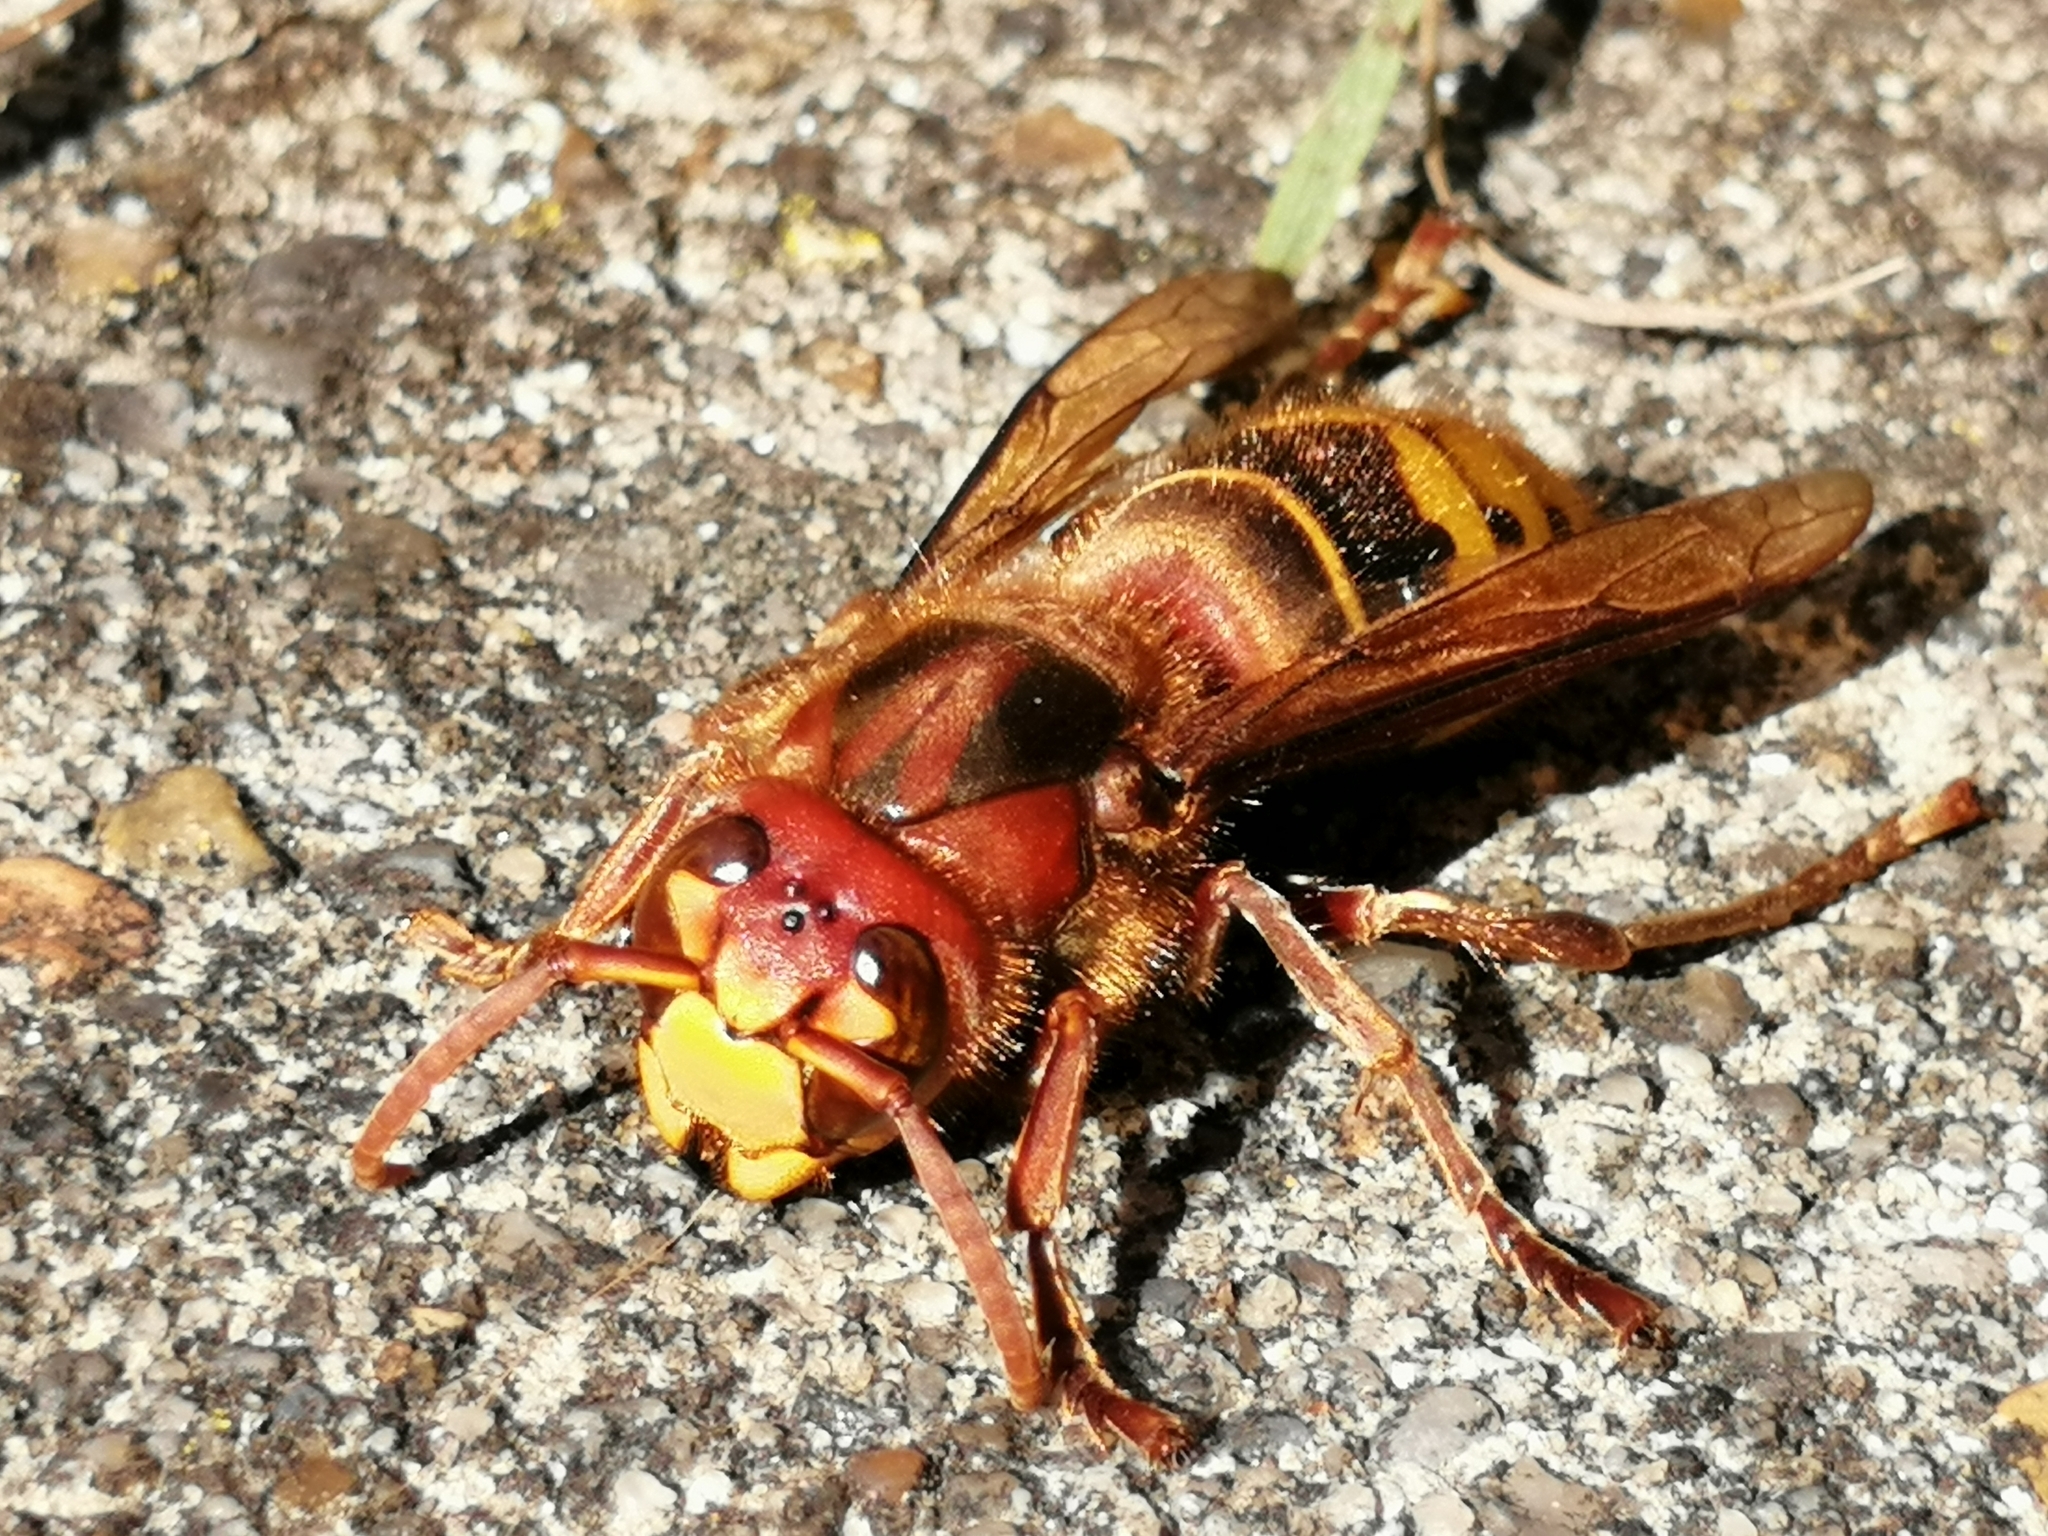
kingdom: Animalia
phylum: Arthropoda
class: Insecta
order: Hymenoptera
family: Vespidae
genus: Vespa
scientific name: Vespa crabro
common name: Hornet
